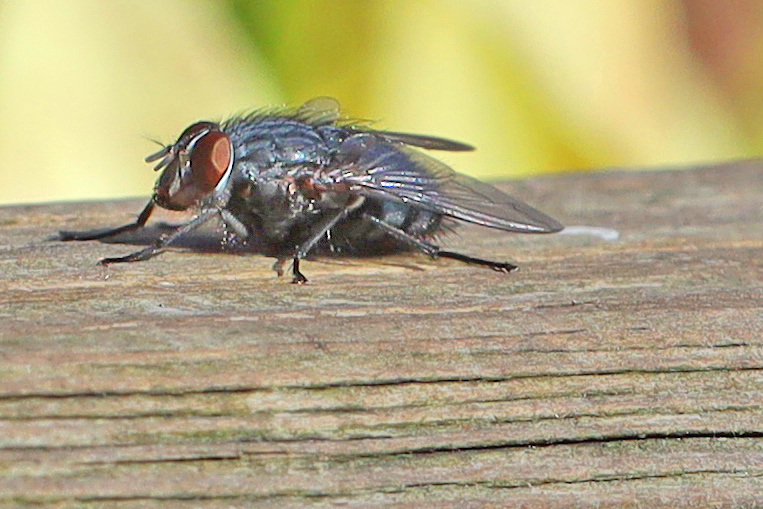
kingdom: Animalia
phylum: Arthropoda
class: Insecta
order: Diptera
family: Calliphoridae
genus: Calliphora
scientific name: Calliphora vicina
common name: Common blow flie
